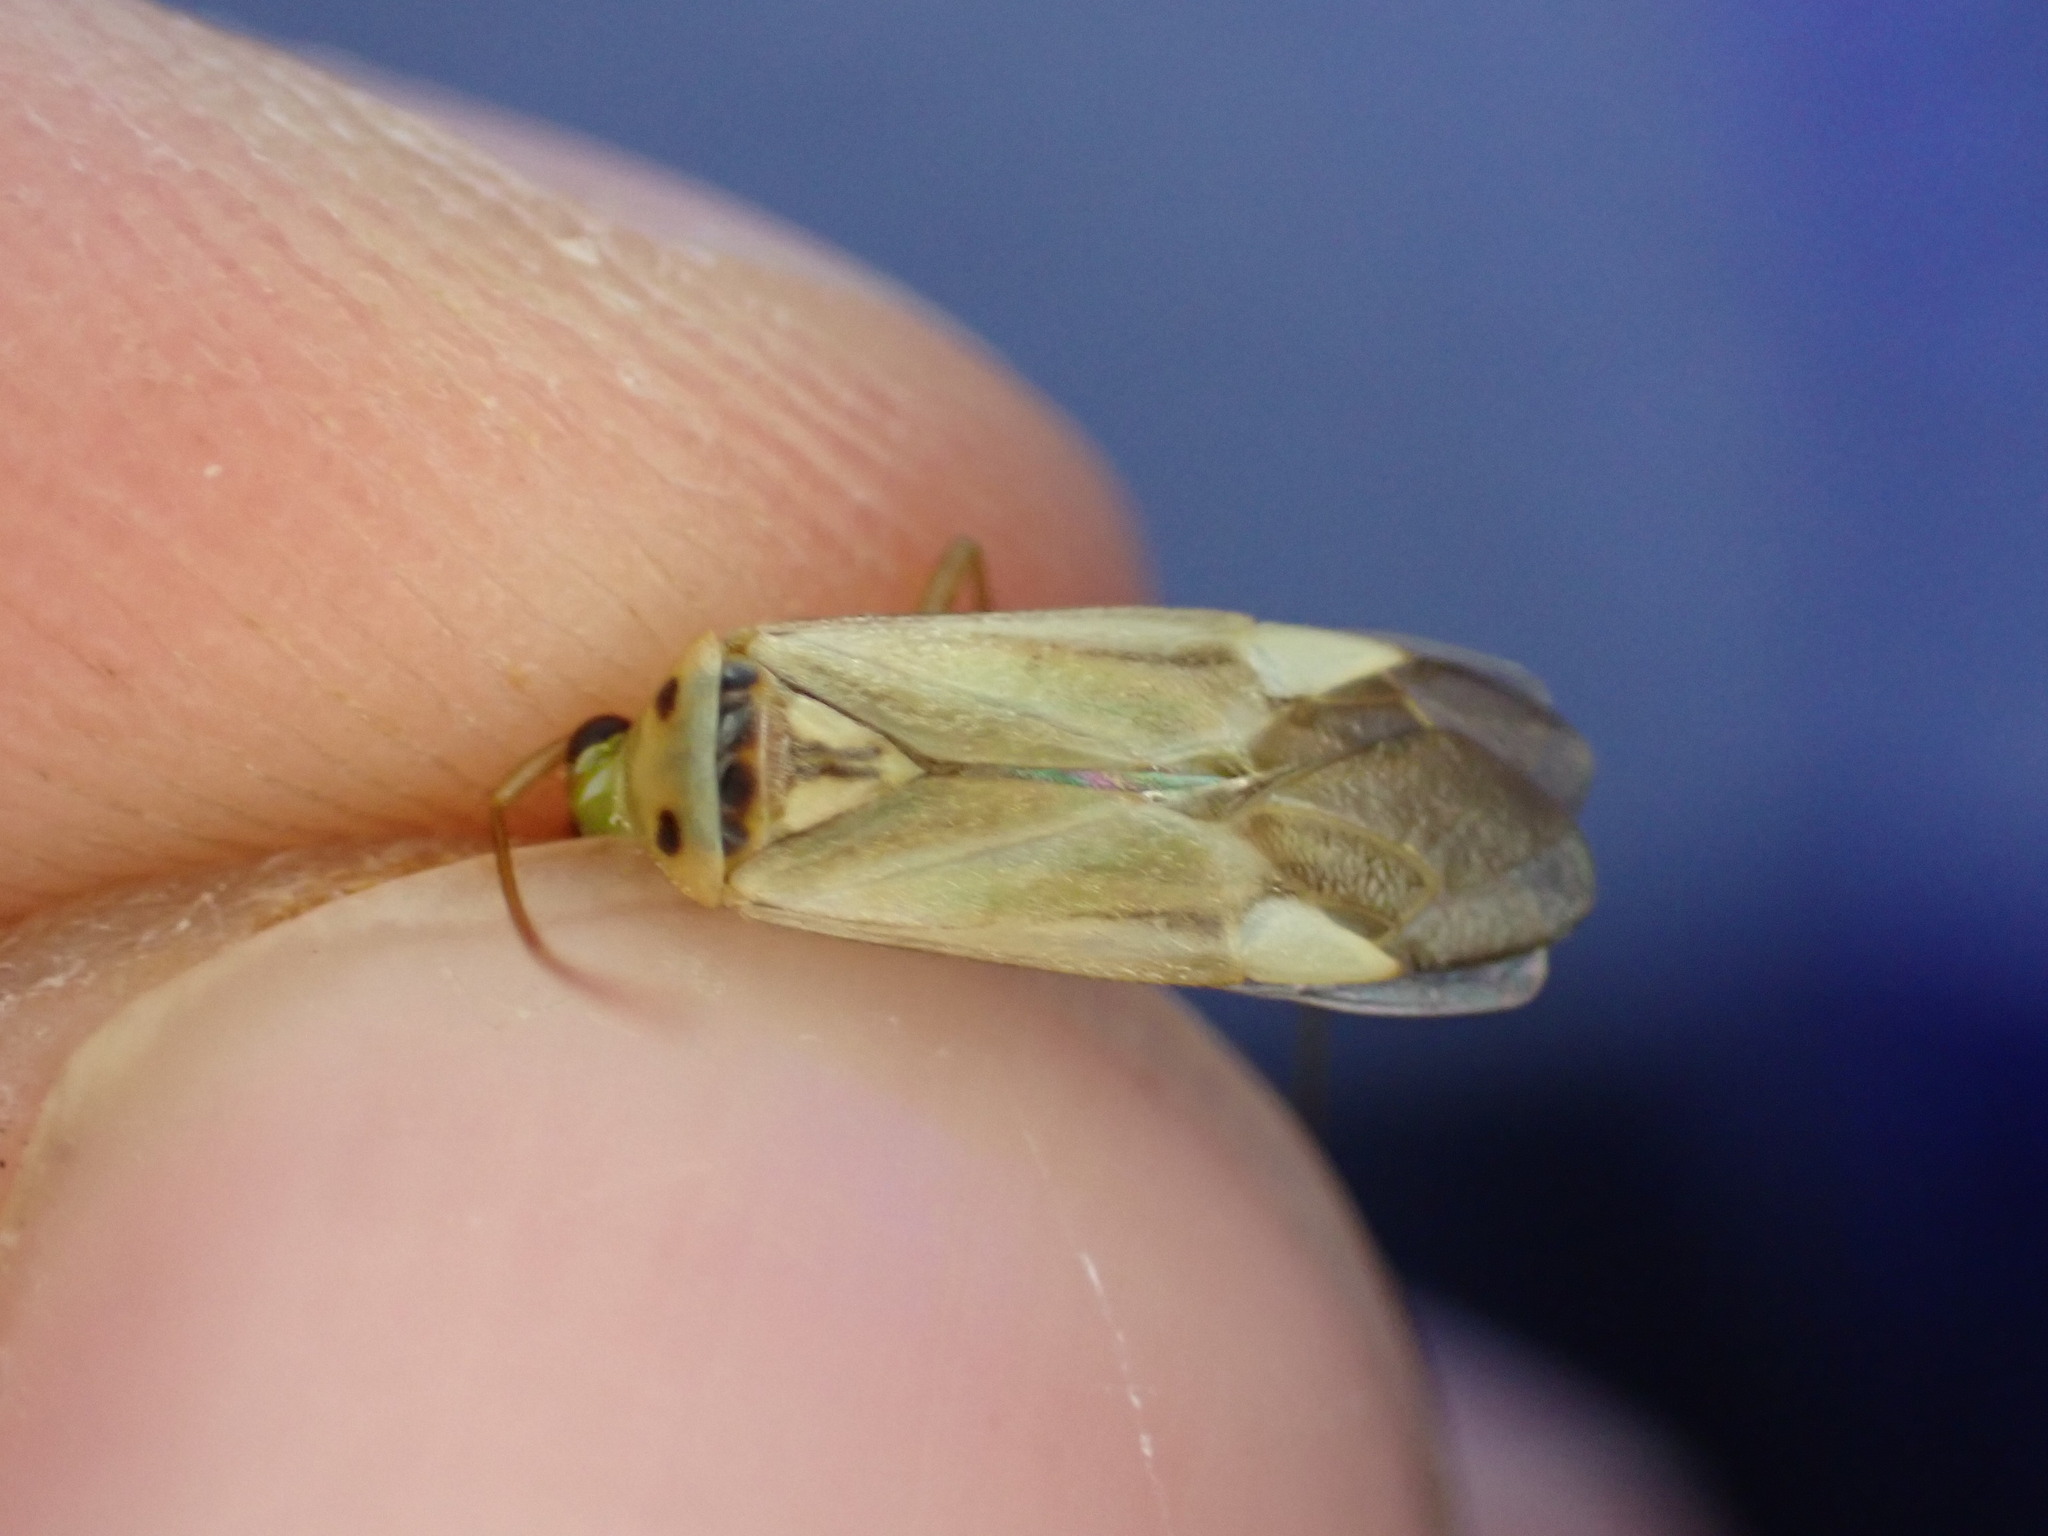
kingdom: Animalia
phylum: Arthropoda
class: Insecta
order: Hemiptera
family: Miridae
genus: Adelphocoris
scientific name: Adelphocoris lineolatus
